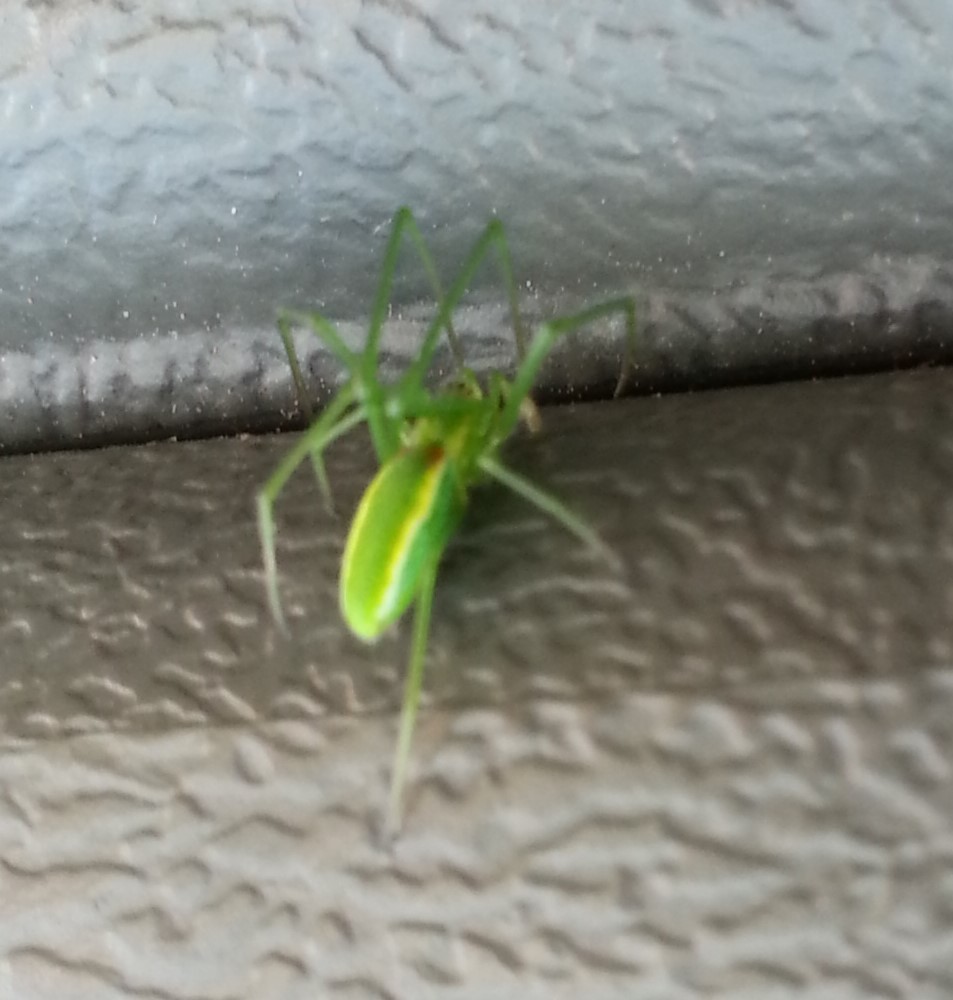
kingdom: Animalia
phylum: Arthropoda
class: Arachnida
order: Araneae
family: Tetragnathidae
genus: Tetragnatha
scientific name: Tetragnatha viridis
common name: Green long-jawed spider
